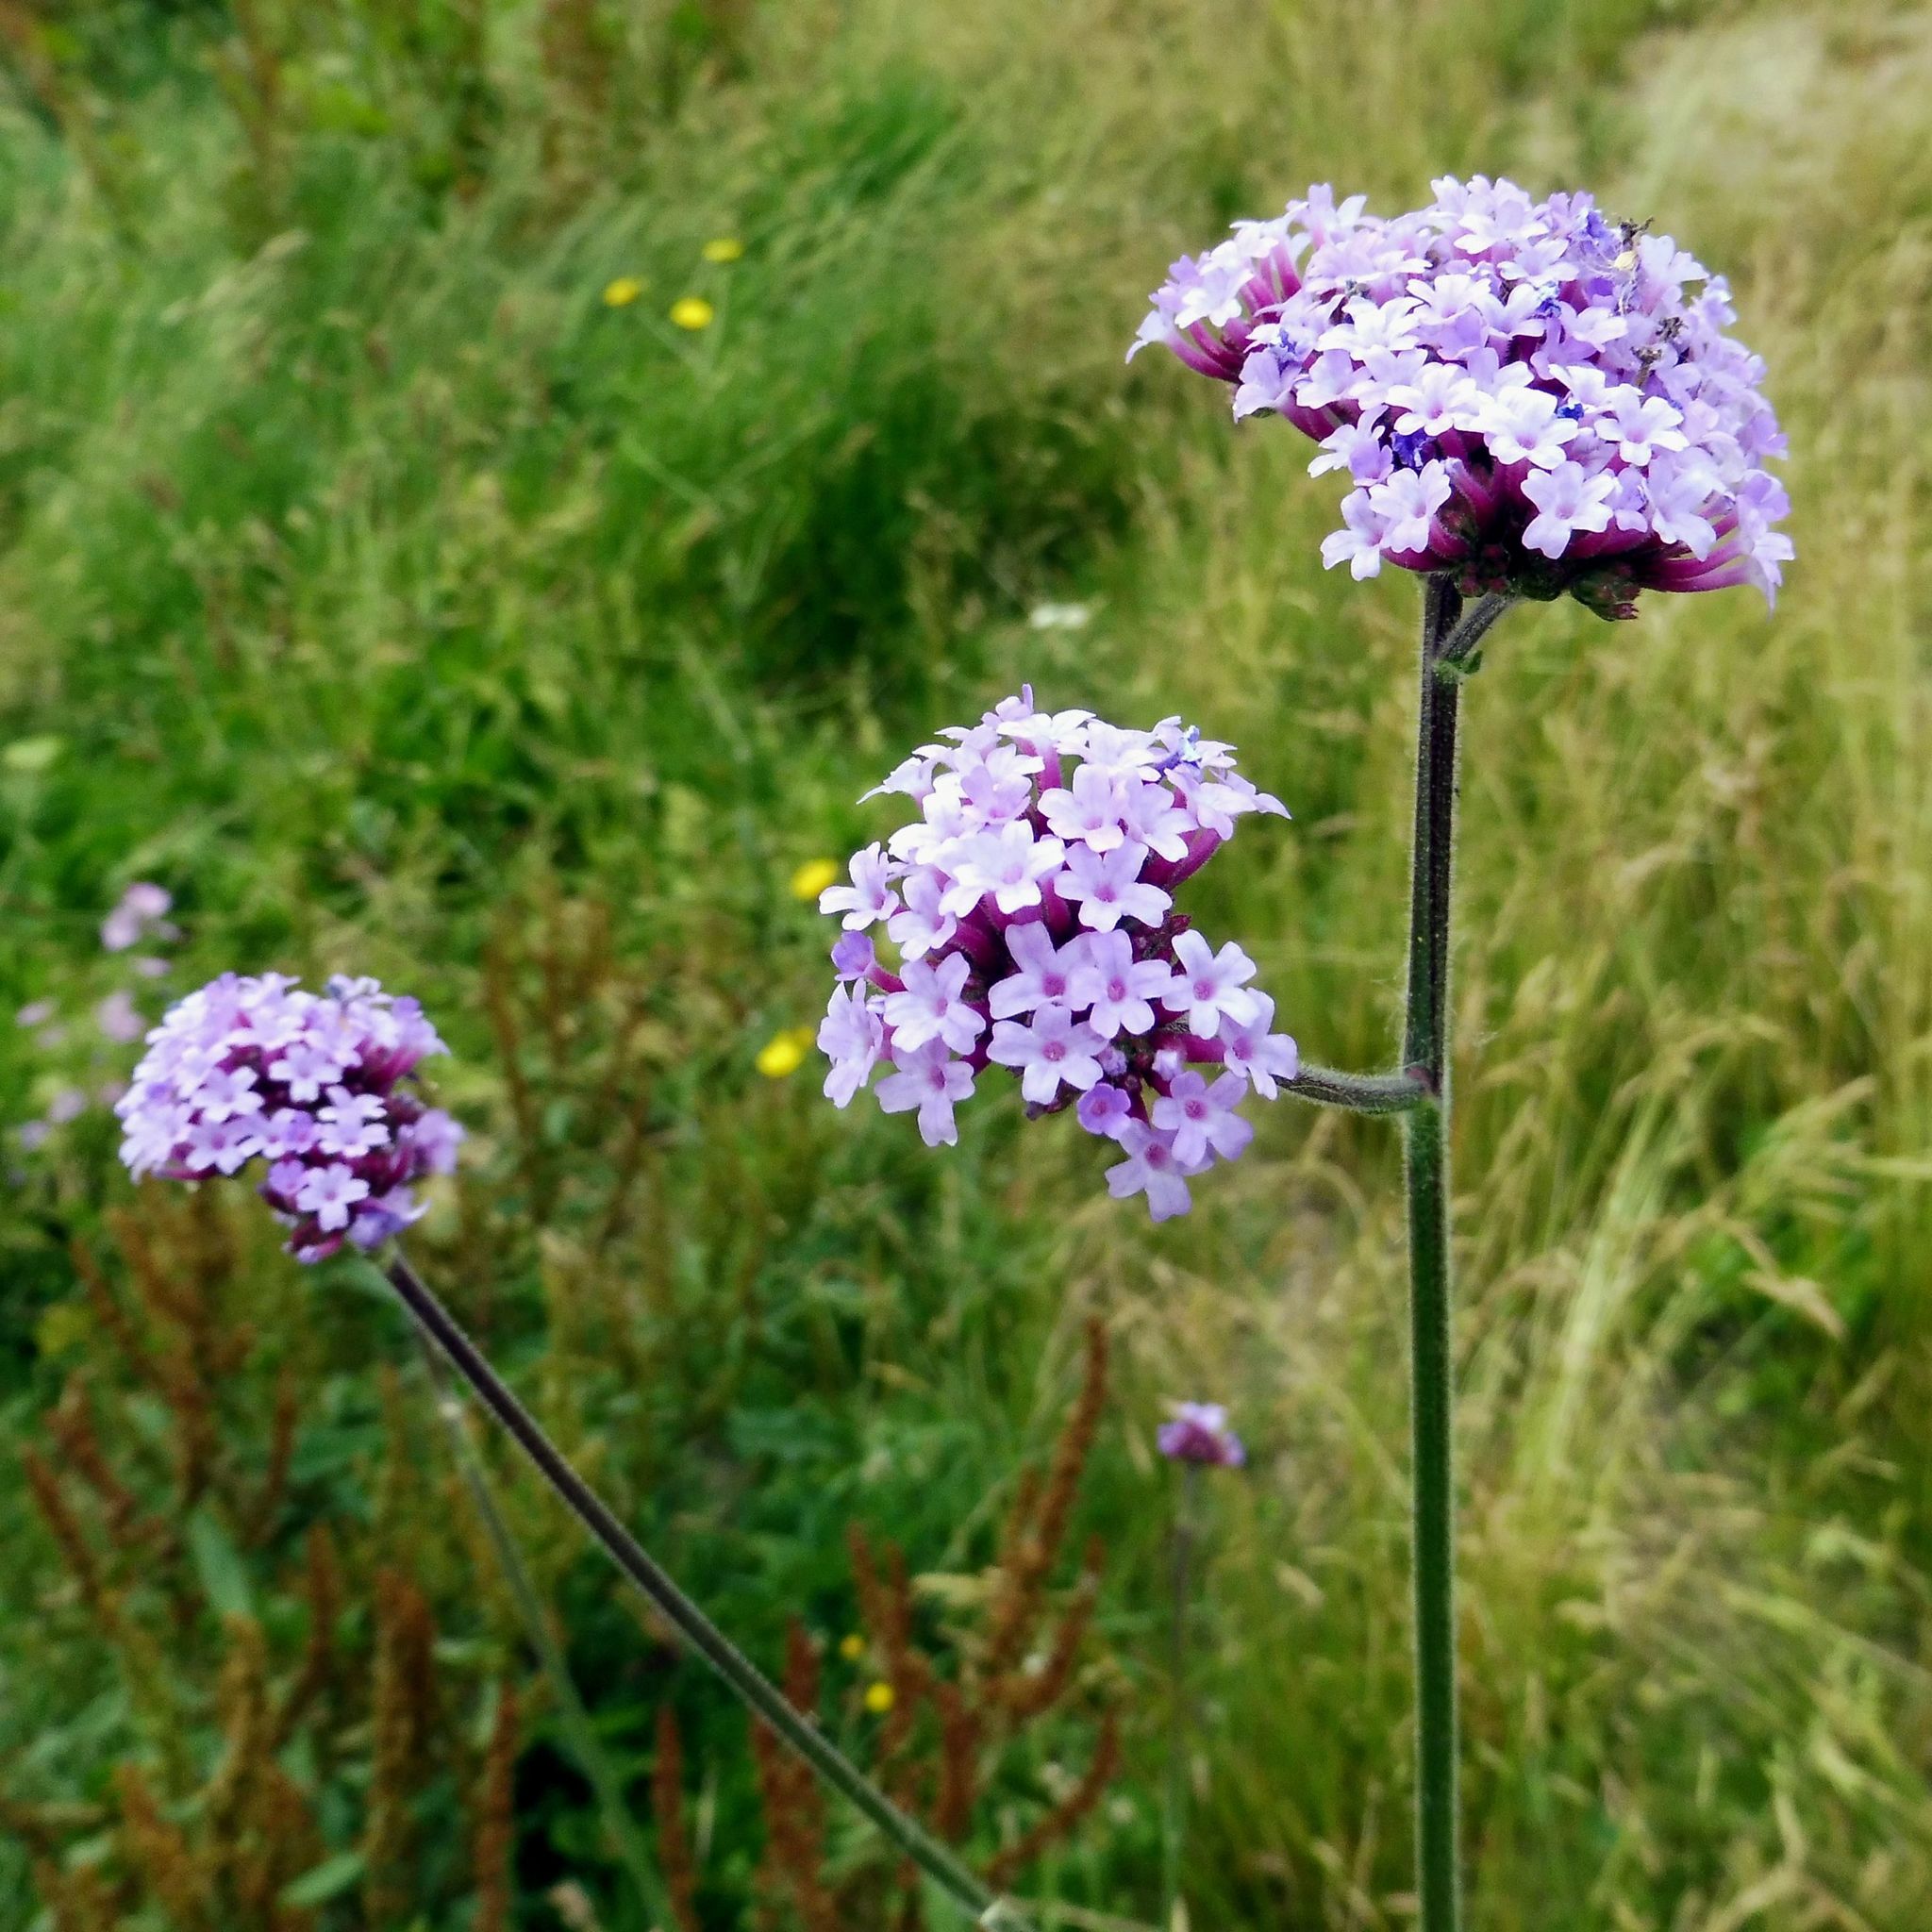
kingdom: Plantae
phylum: Tracheophyta
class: Magnoliopsida
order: Lamiales
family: Verbenaceae
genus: Verbena
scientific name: Verbena bonariensis
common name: Purpletop vervain
